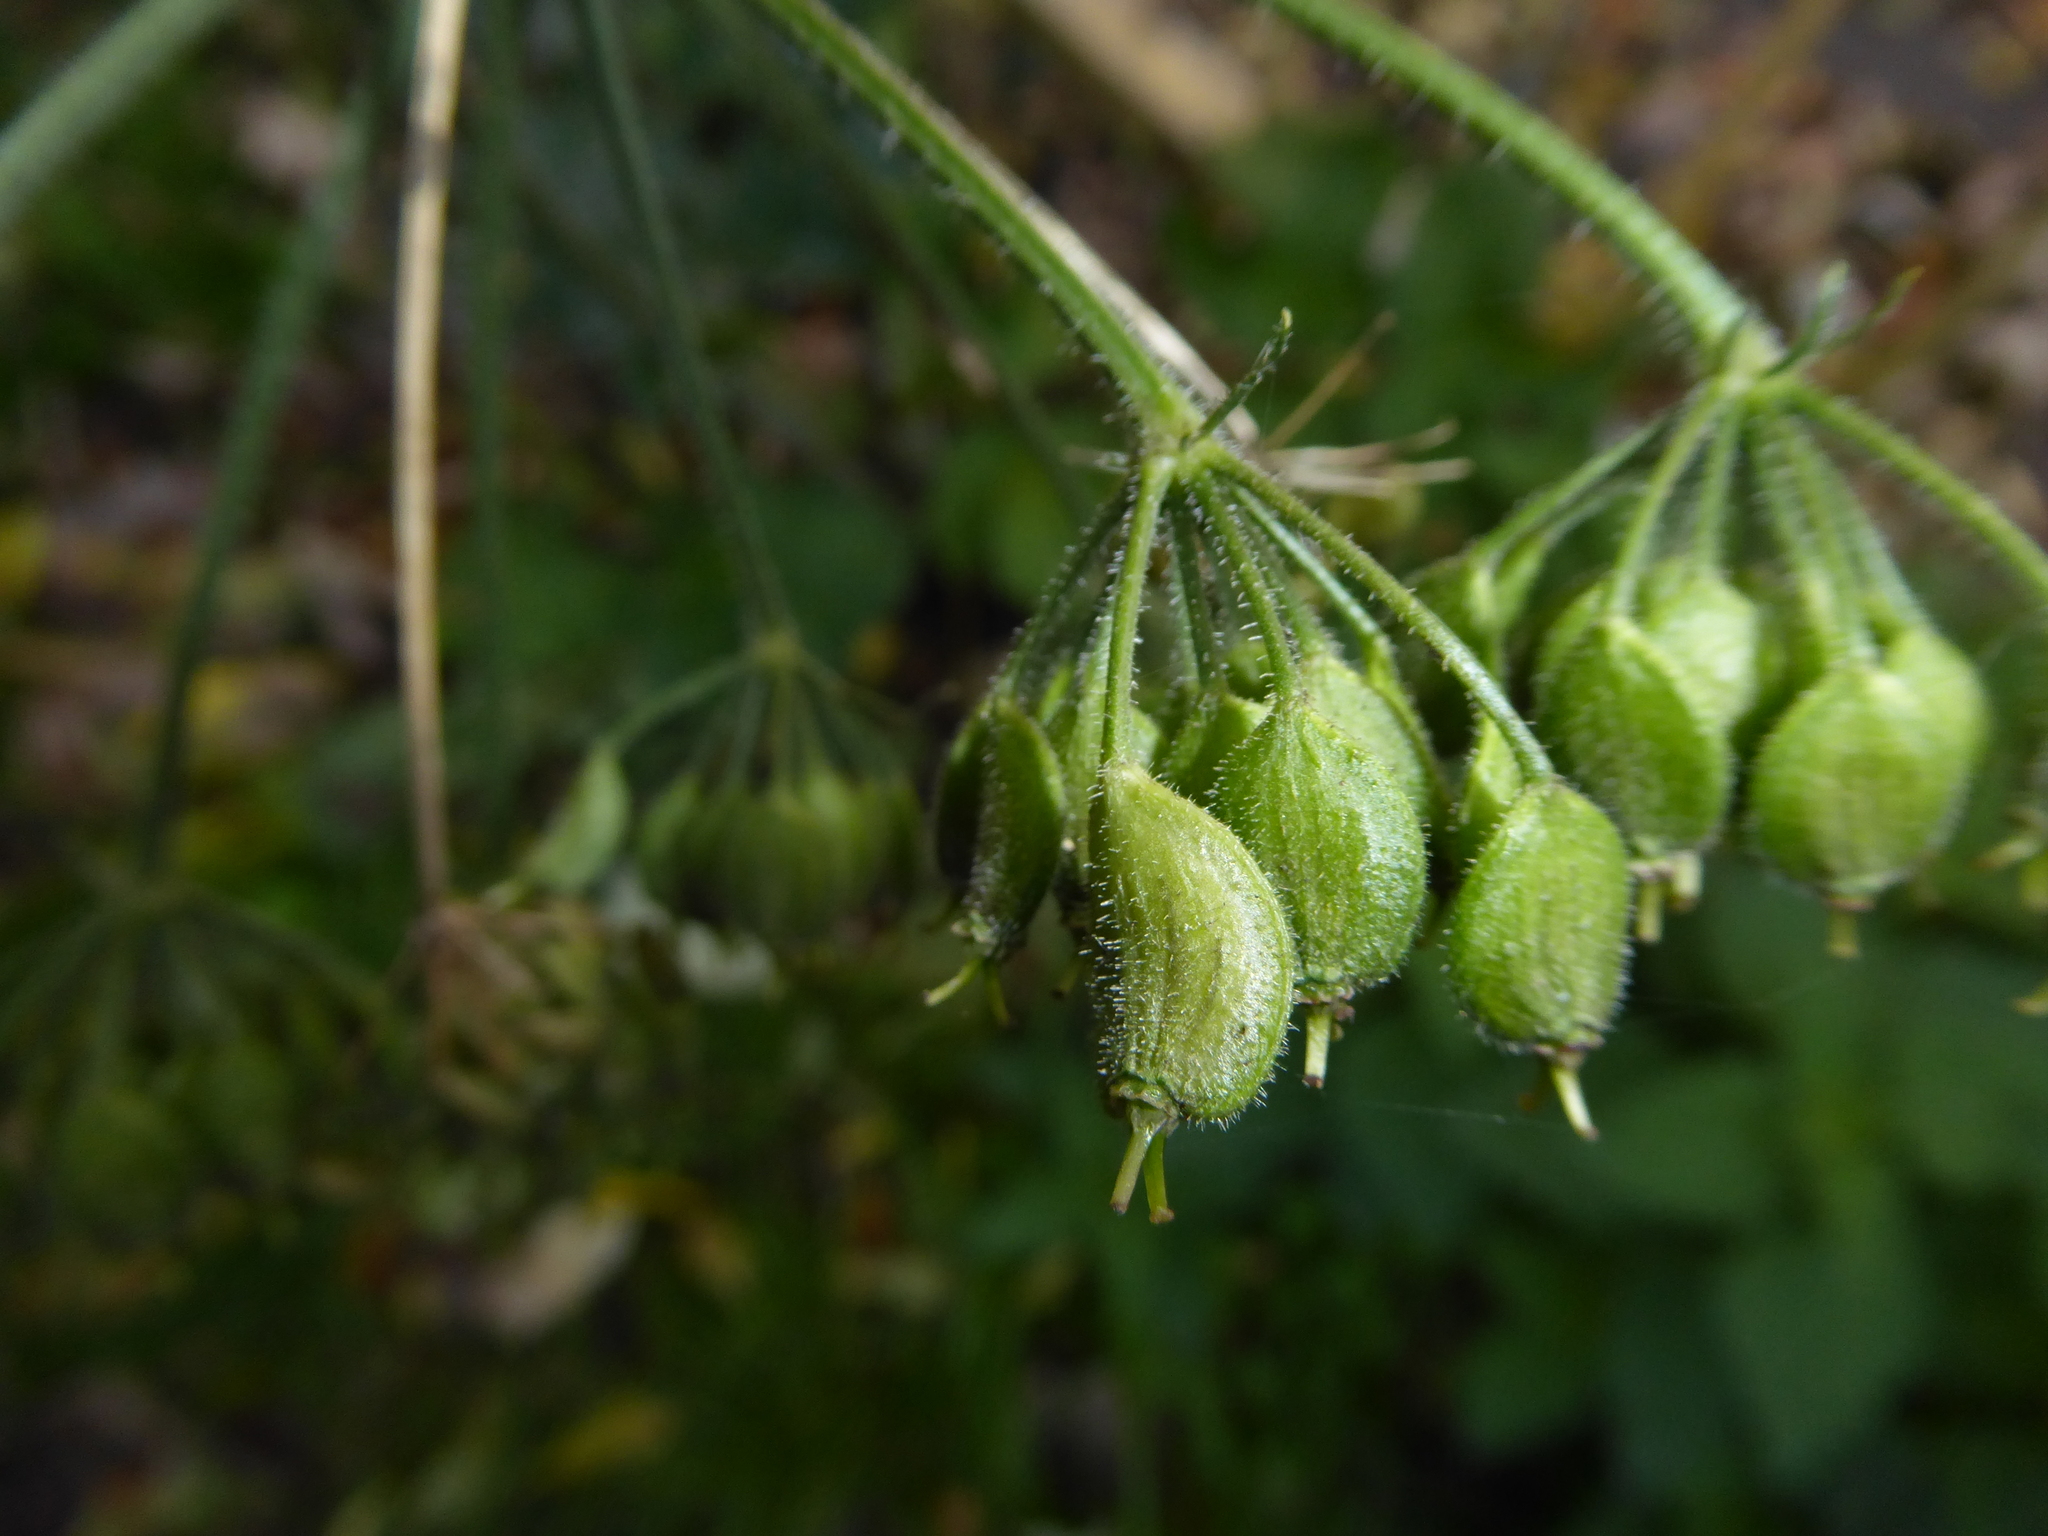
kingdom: Plantae
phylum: Tracheophyta
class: Magnoliopsida
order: Apiales
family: Apiaceae
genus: Heracleum
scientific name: Heracleum sphondylium
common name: Hogweed
